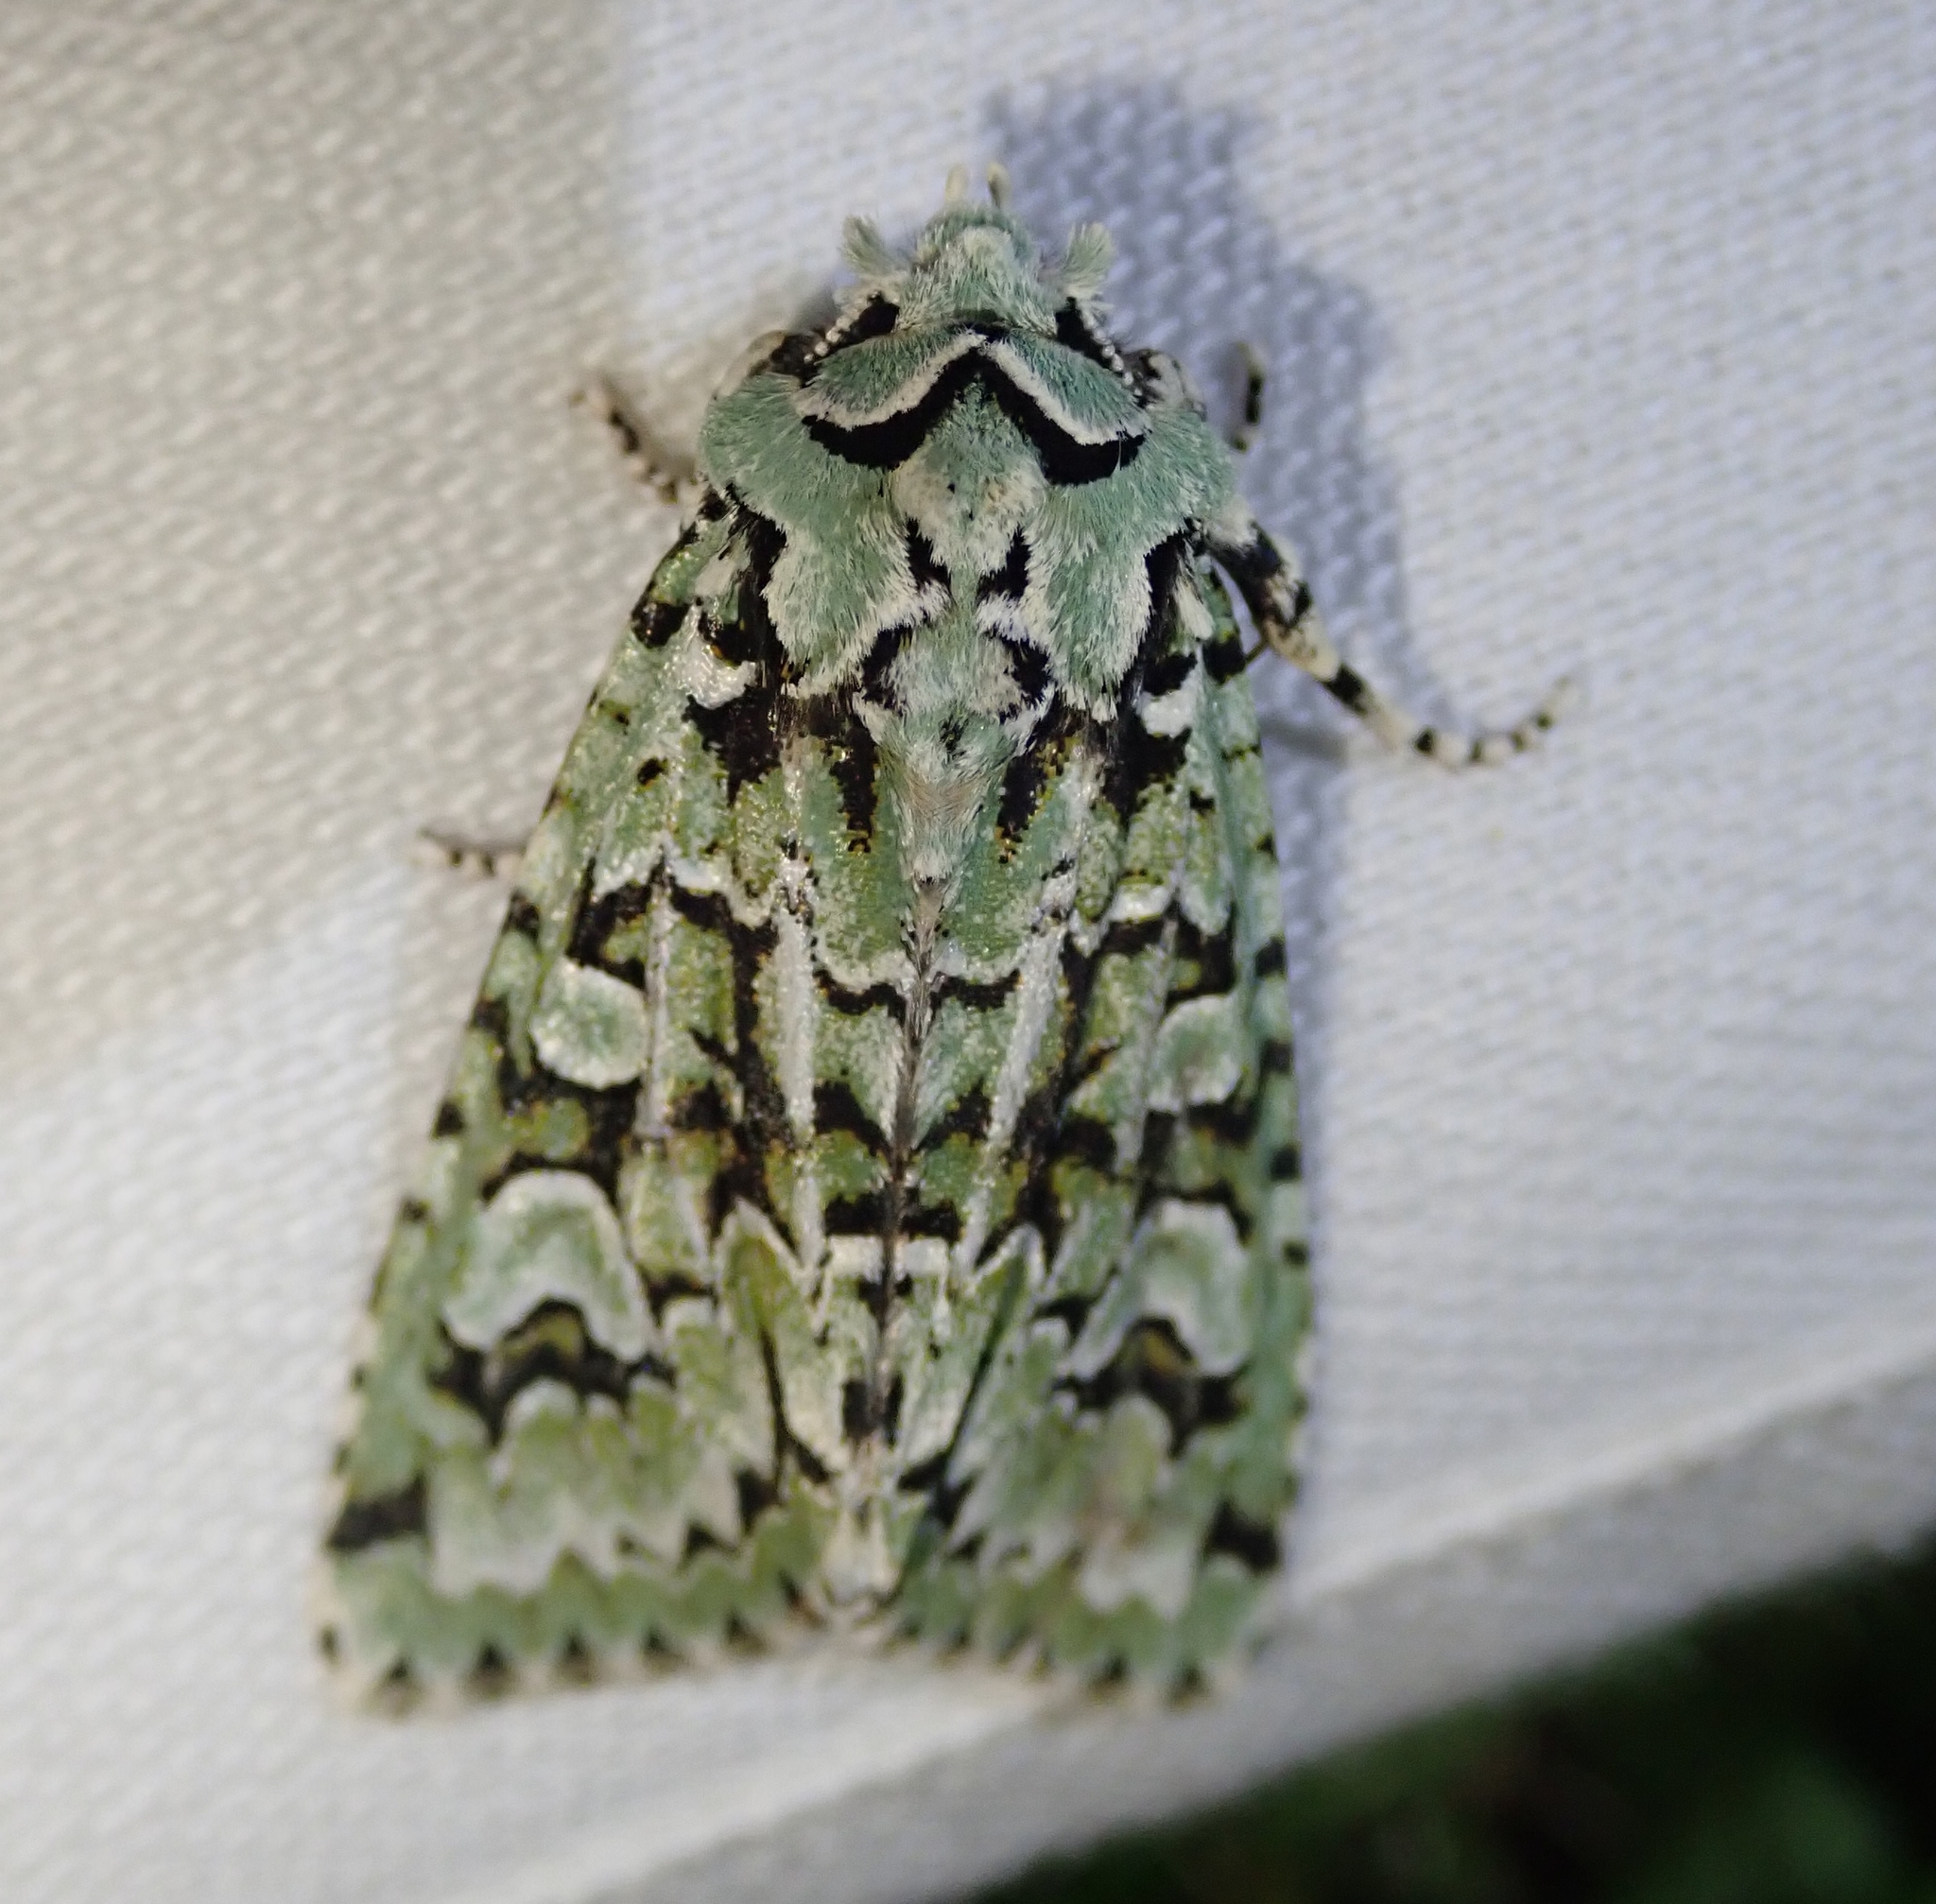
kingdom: Animalia
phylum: Arthropoda
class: Insecta
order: Lepidoptera
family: Noctuidae
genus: Griposia
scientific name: Griposia aprilina
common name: Merveille du jour
